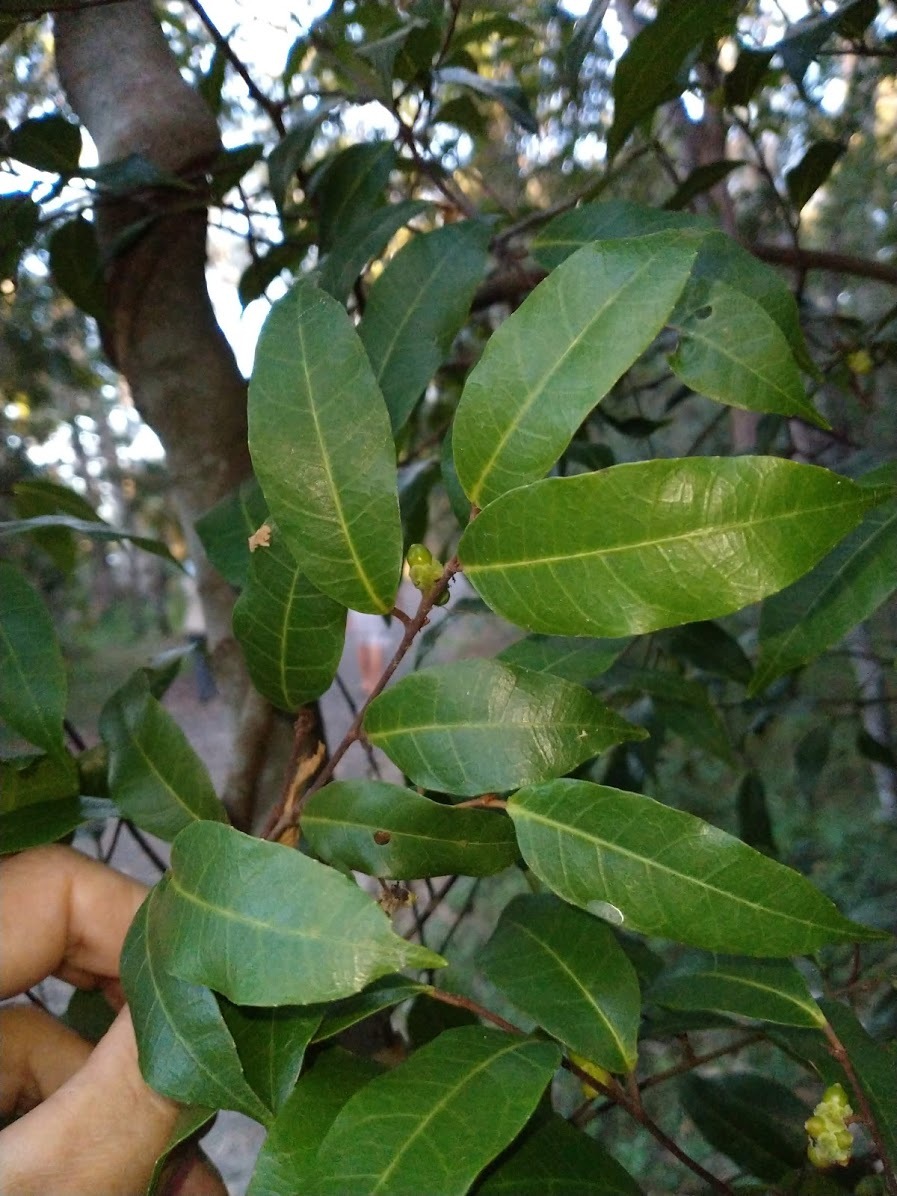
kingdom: Plantae
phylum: Tracheophyta
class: Magnoliopsida
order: Rosales
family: Moraceae
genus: Malaisia
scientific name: Malaisia scandens
